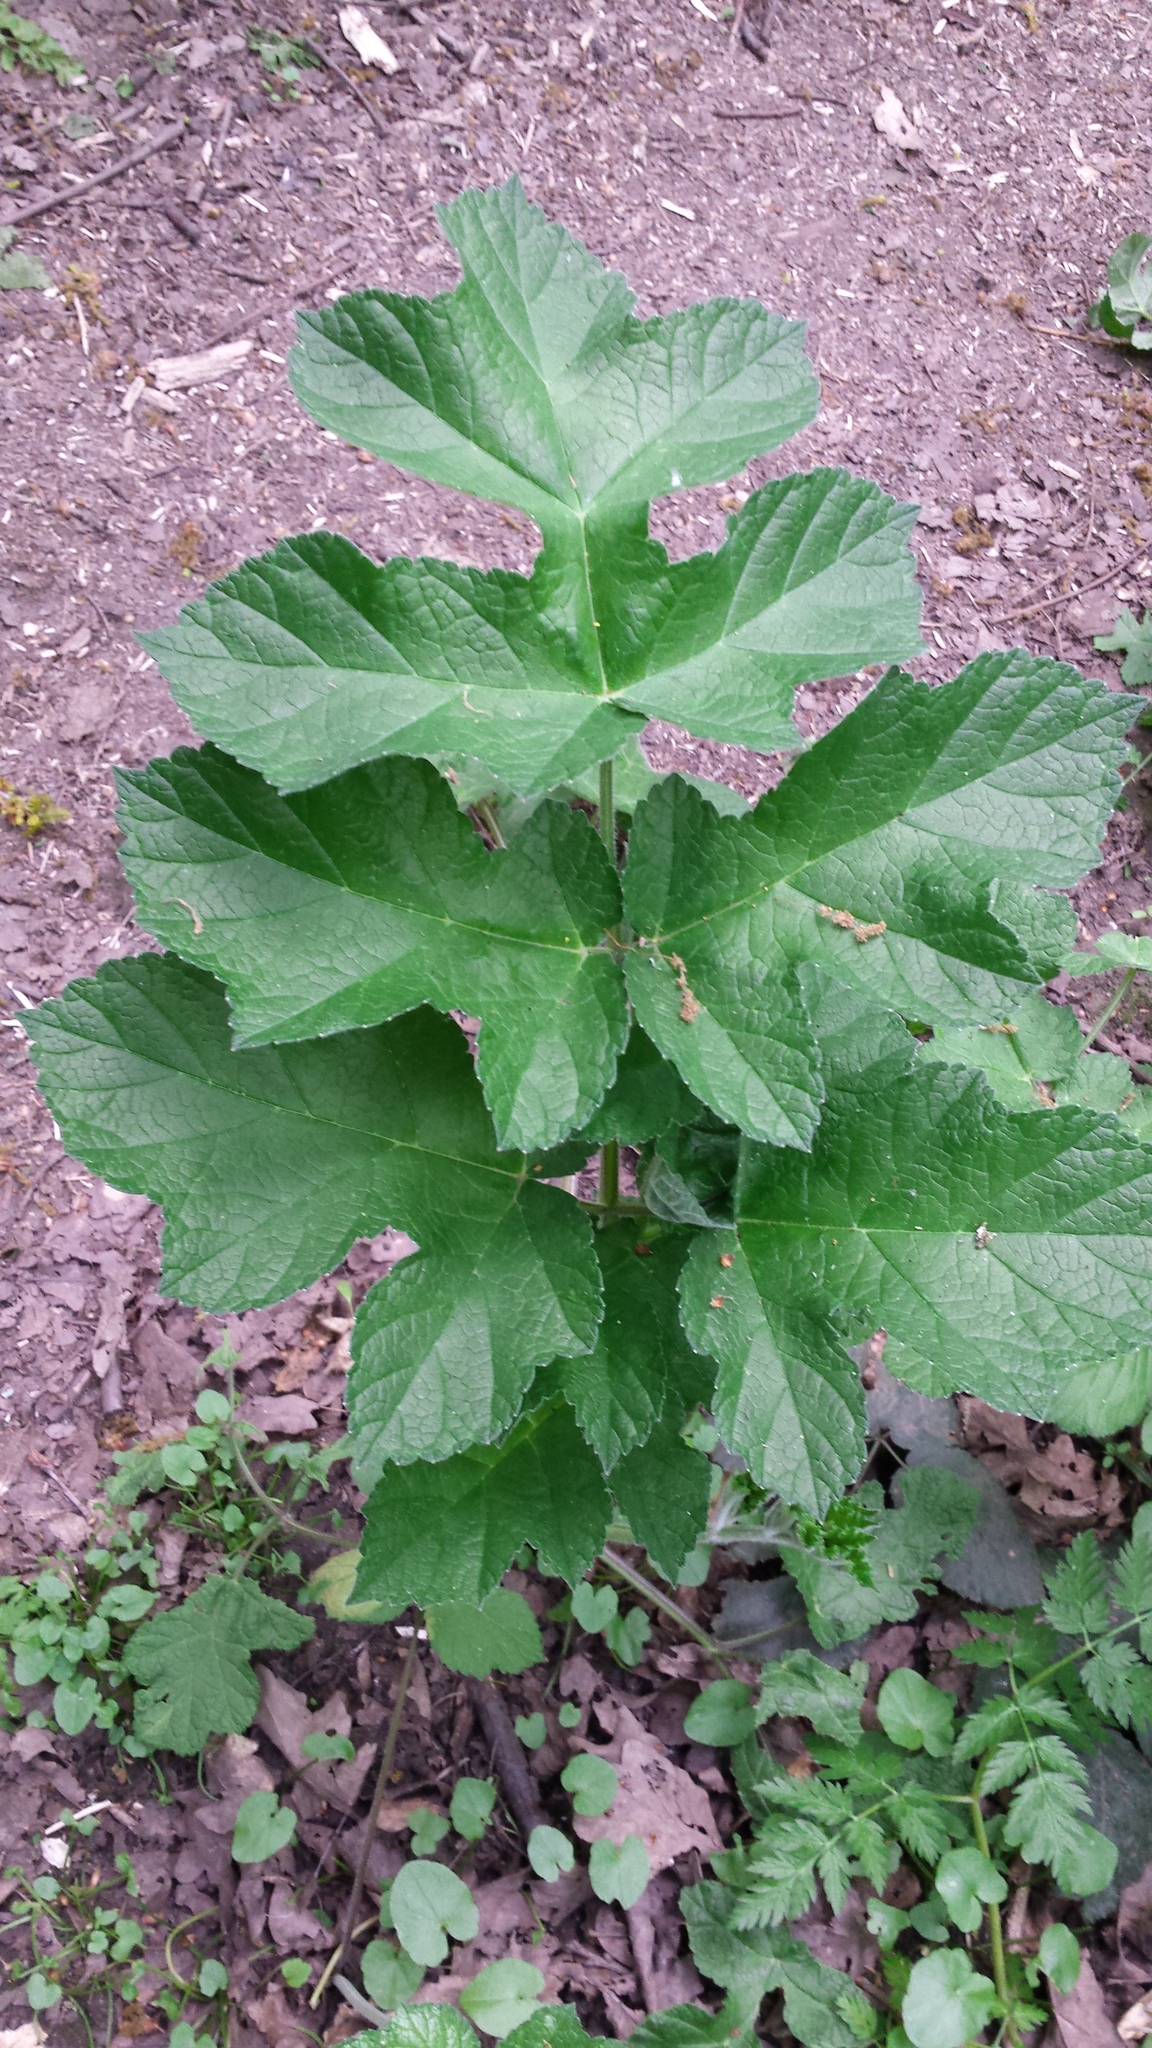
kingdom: Plantae
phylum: Tracheophyta
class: Magnoliopsida
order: Apiales
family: Apiaceae
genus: Heracleum
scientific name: Heracleum sphondylium
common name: Hogweed
